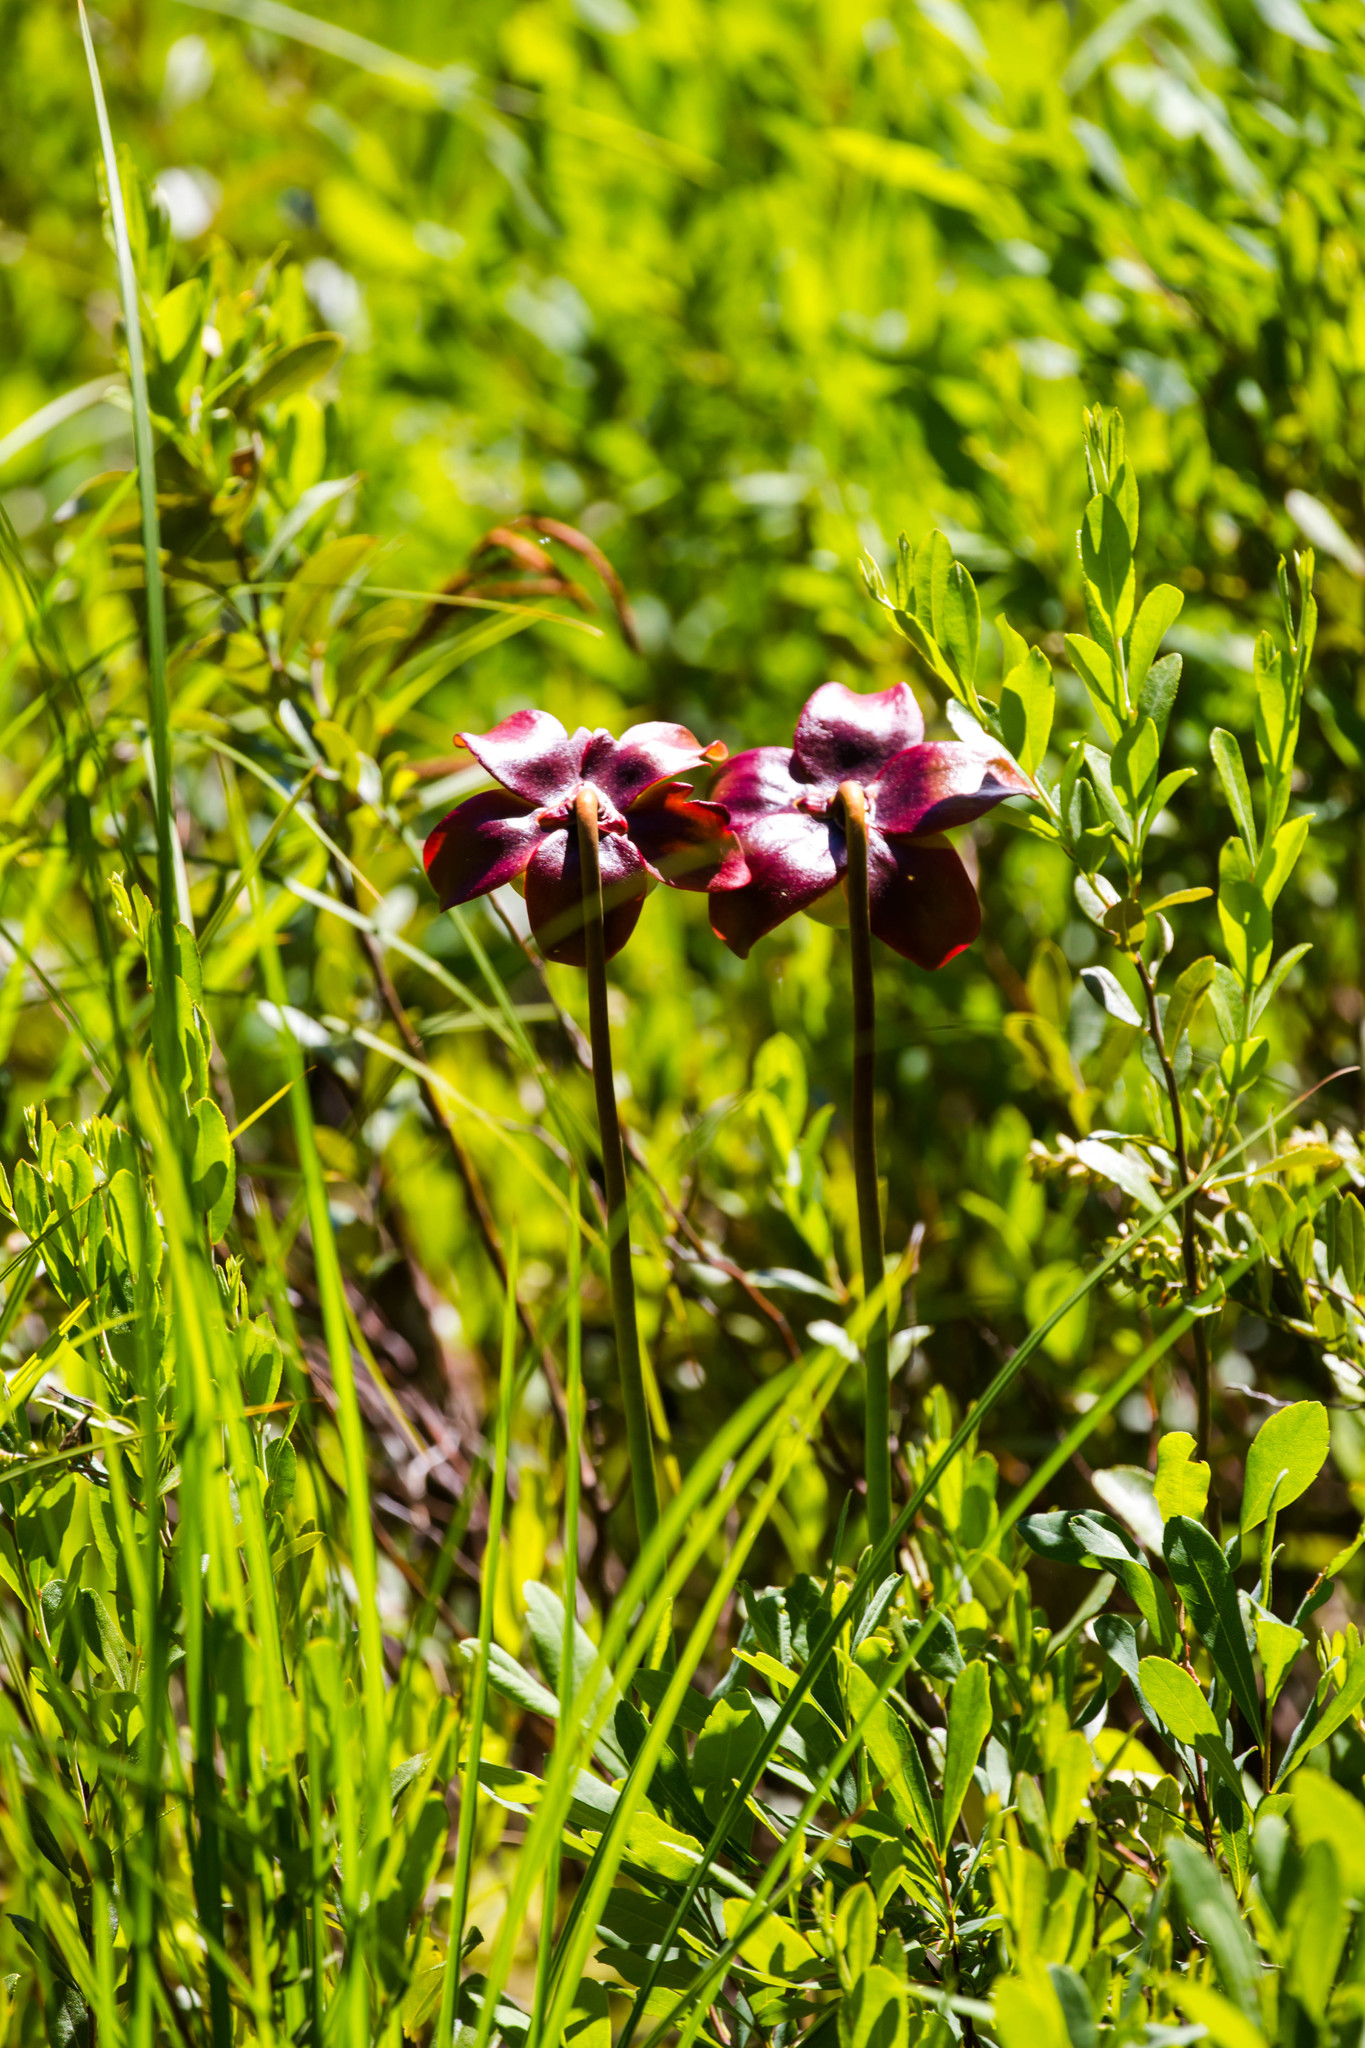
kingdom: Plantae
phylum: Tracheophyta
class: Magnoliopsida
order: Ericales
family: Sarraceniaceae
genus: Sarracenia
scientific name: Sarracenia purpurea
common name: Pitcherplant
